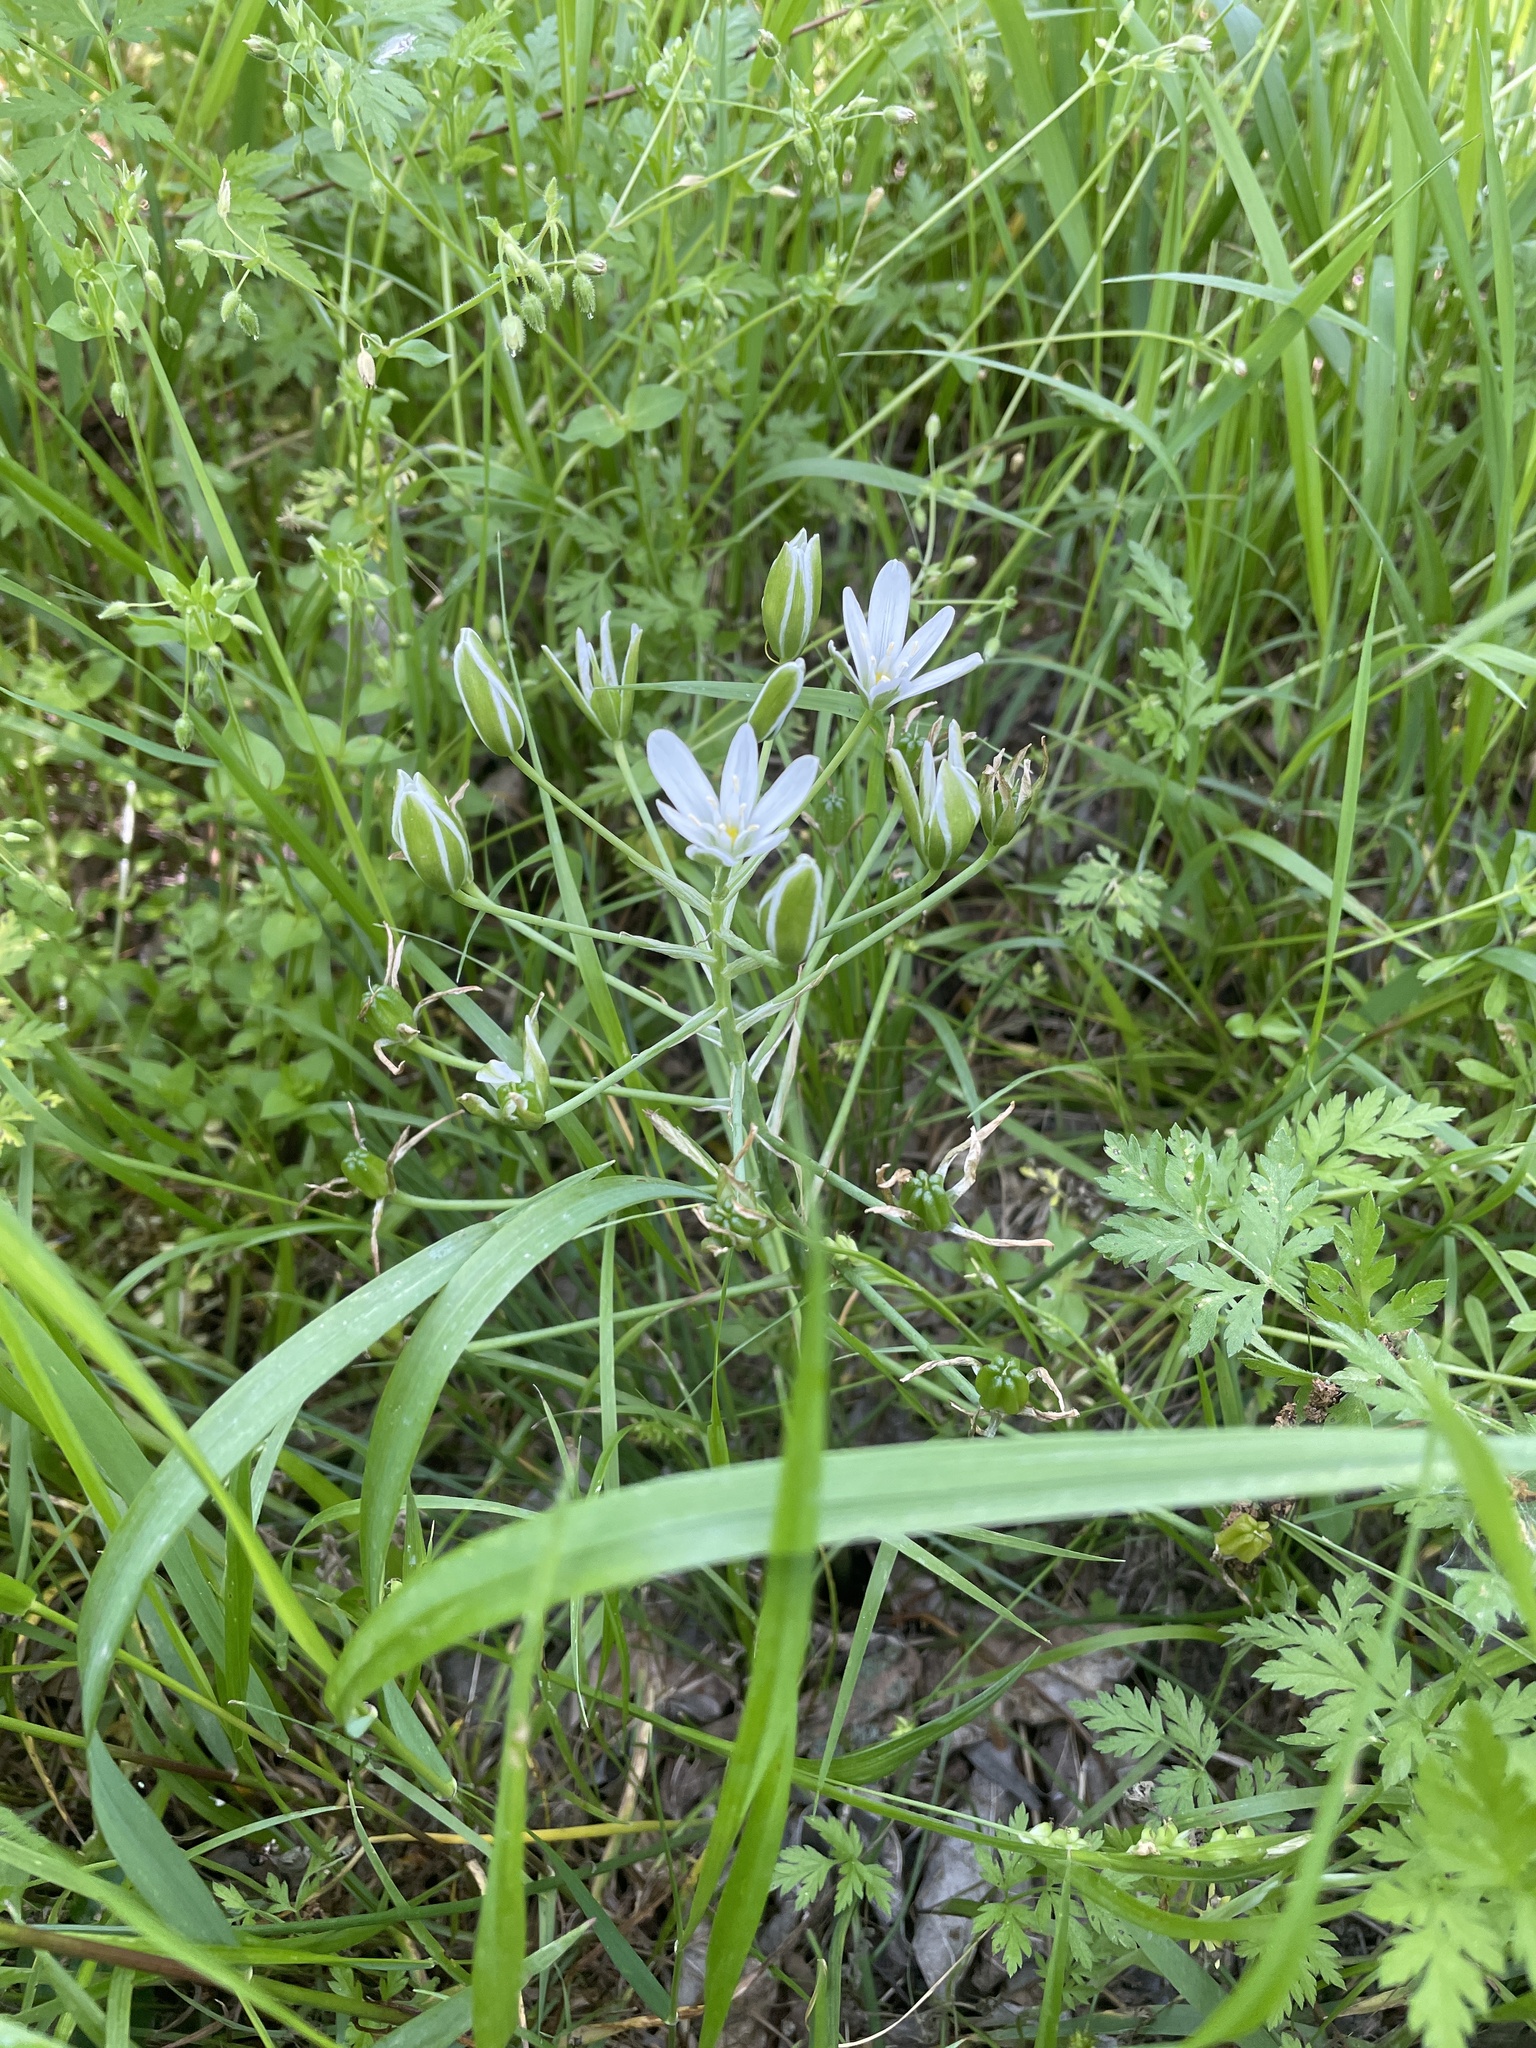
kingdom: Plantae
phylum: Tracheophyta
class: Liliopsida
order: Asparagales
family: Asparagaceae
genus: Ornithogalum
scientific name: Ornithogalum umbellatum
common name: Garden star-of-bethlehem
